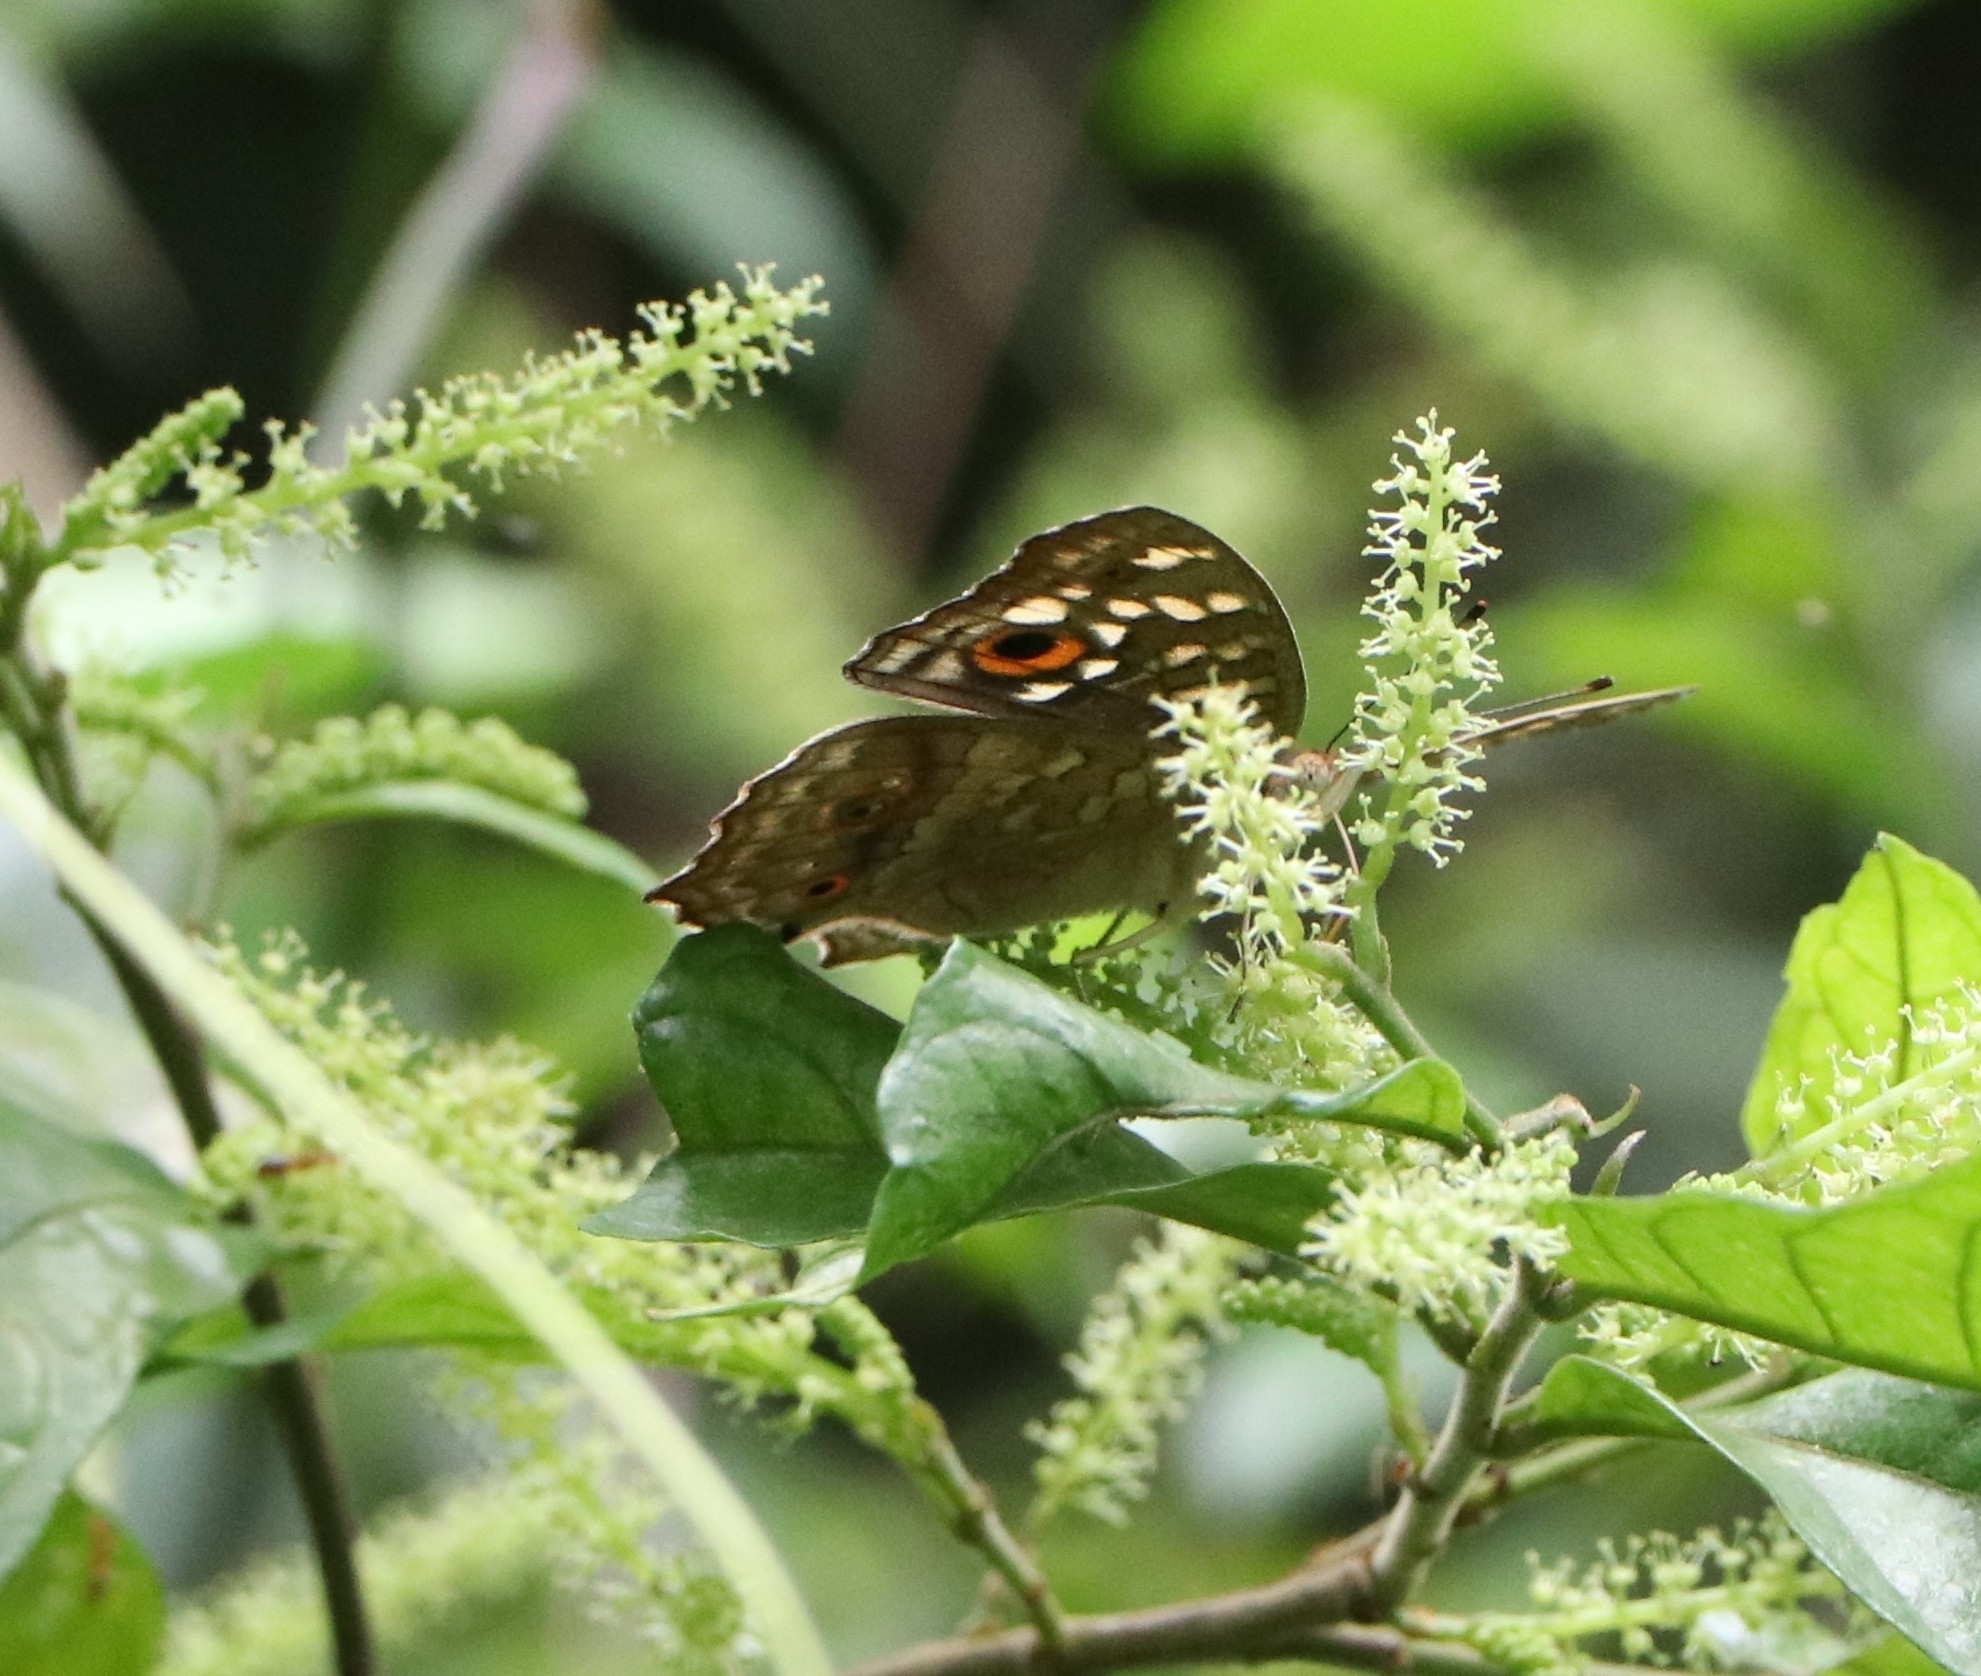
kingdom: Animalia
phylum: Arthropoda
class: Insecta
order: Lepidoptera
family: Nymphalidae
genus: Junonia
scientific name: Junonia lemonias
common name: Lemon pansy
